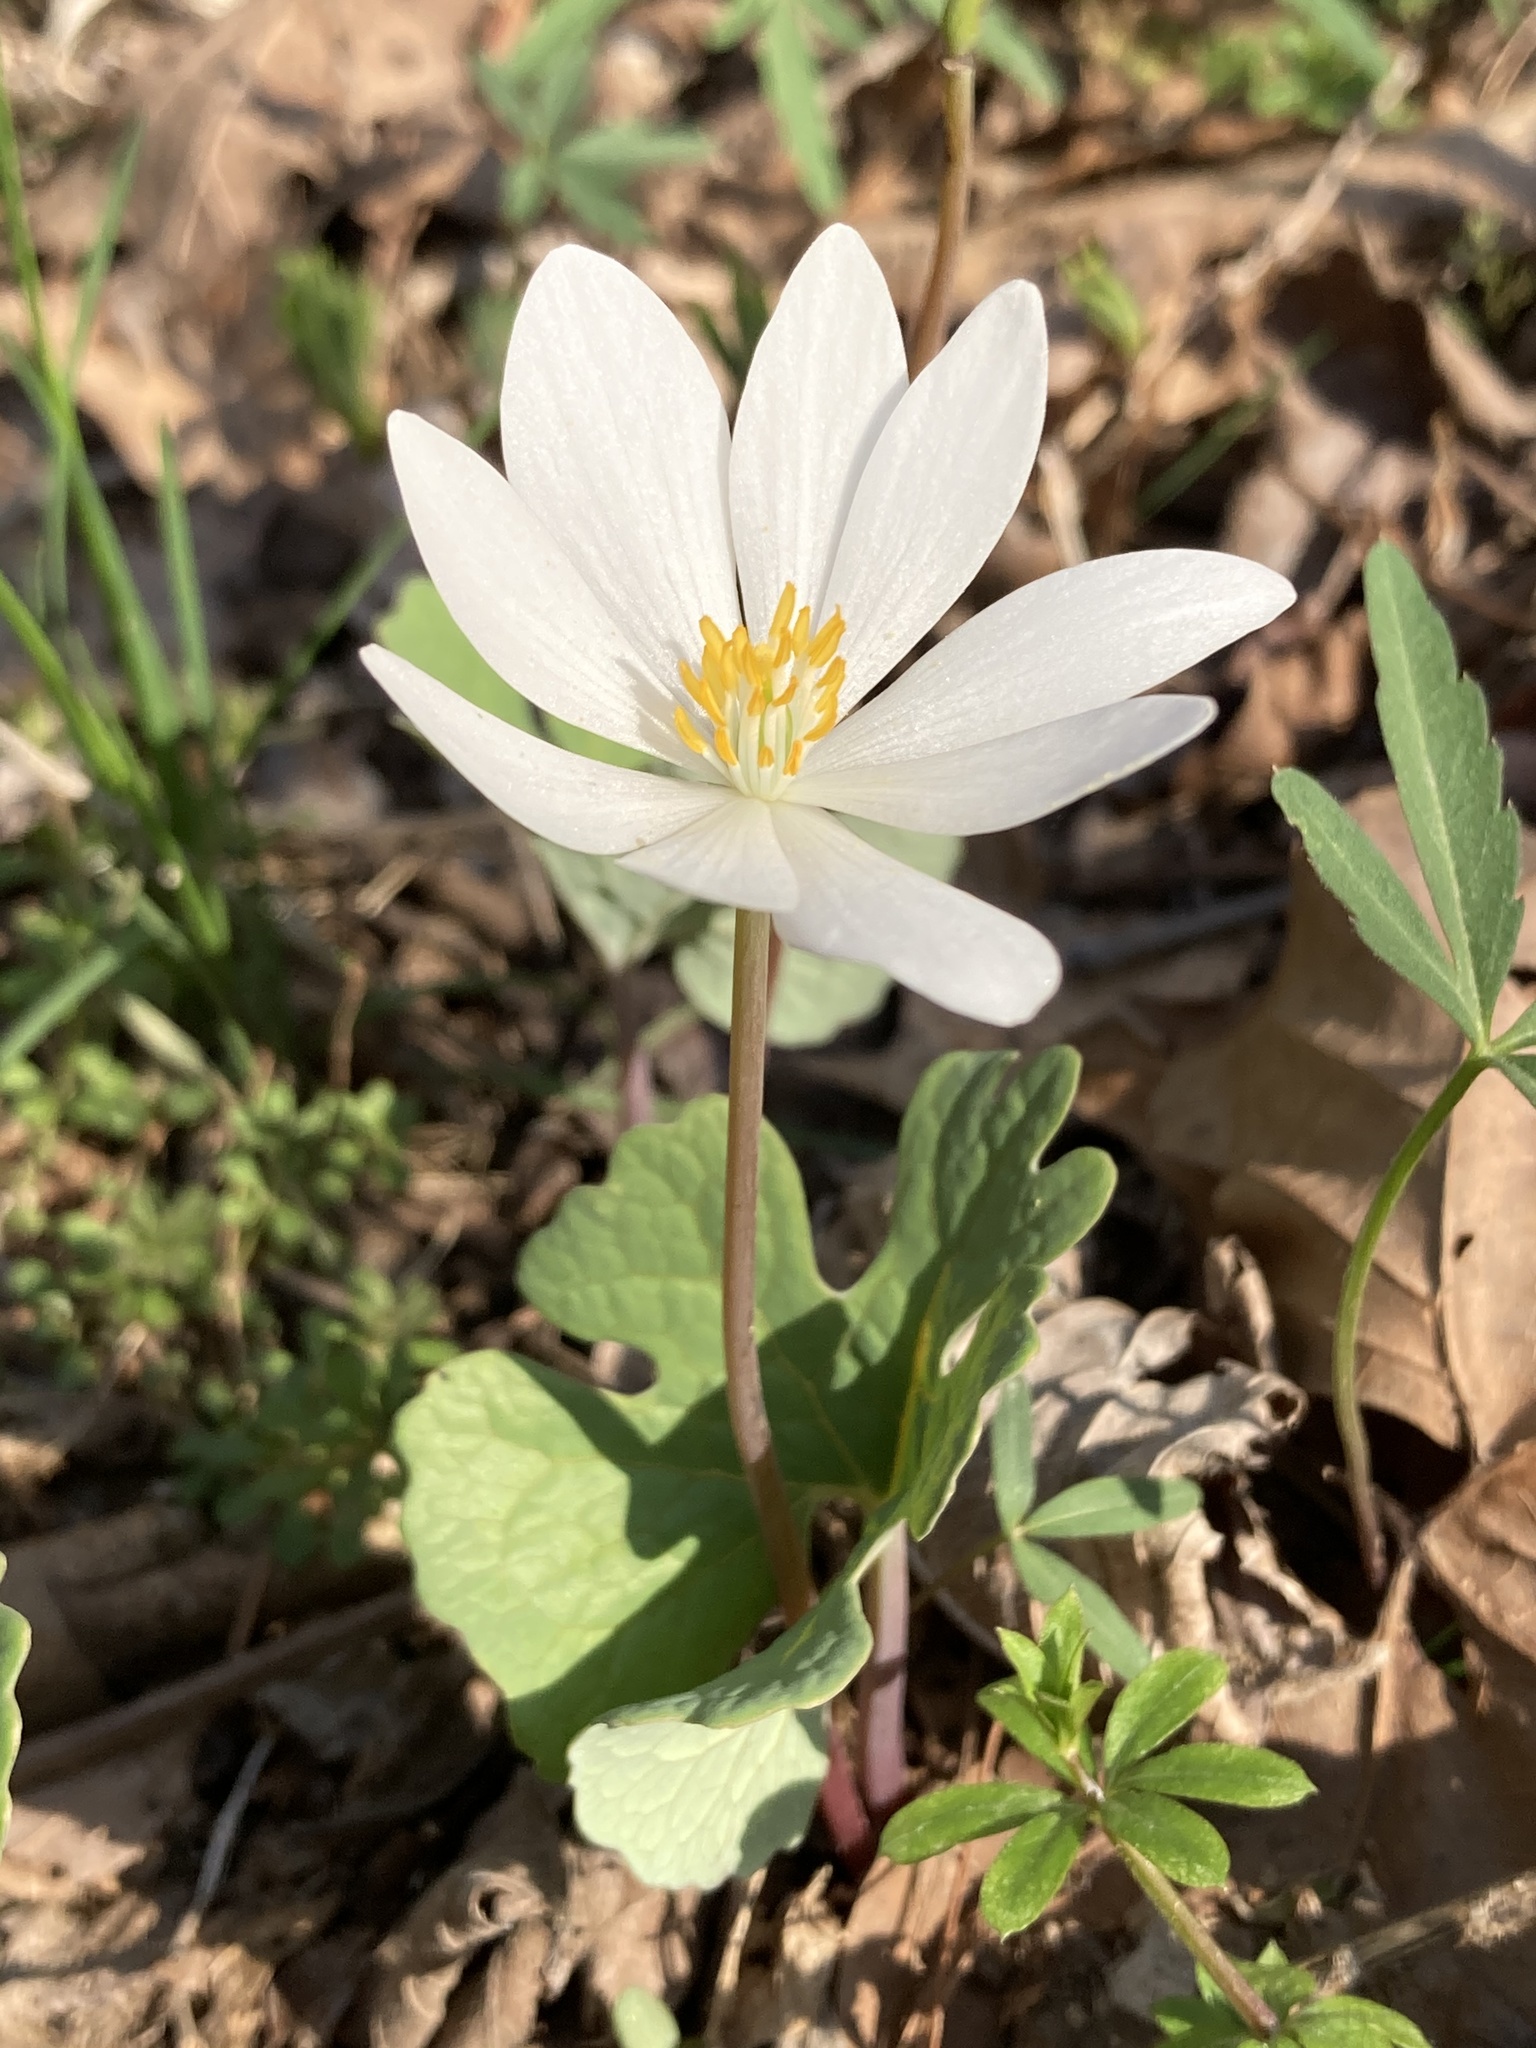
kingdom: Plantae
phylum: Tracheophyta
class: Magnoliopsida
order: Ranunculales
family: Papaveraceae
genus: Sanguinaria
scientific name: Sanguinaria canadensis
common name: Bloodroot
